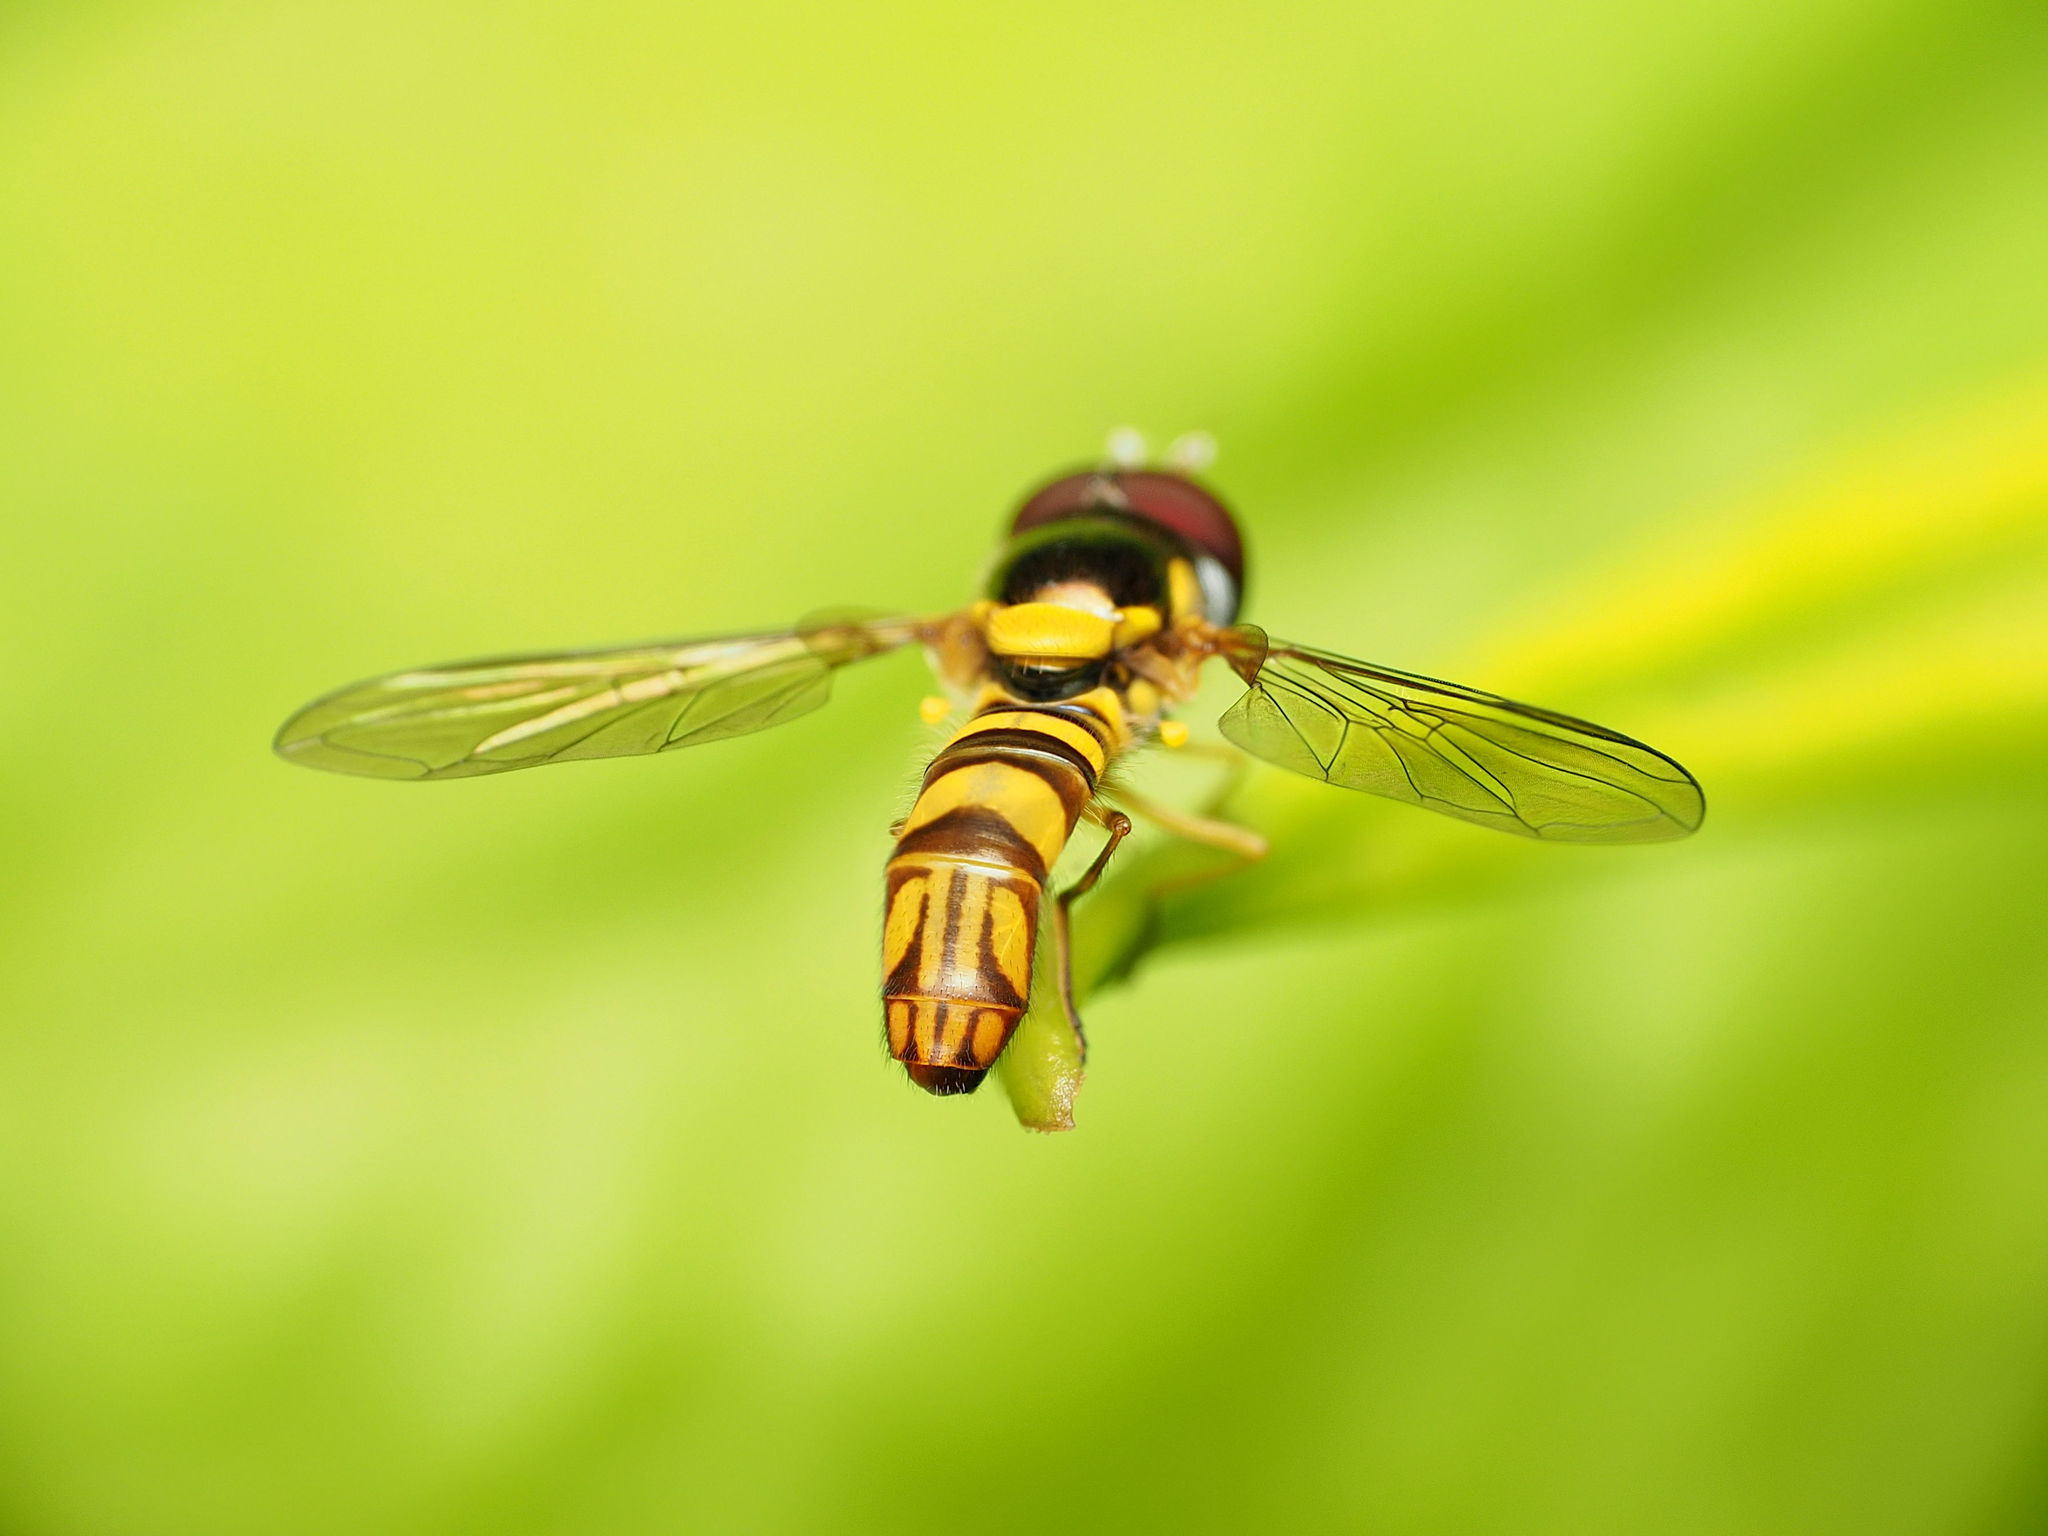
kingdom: Animalia
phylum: Arthropoda
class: Insecta
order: Diptera
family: Syrphidae
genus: Allograpta
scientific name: Allograpta obliqua
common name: Common oblique syrphid
